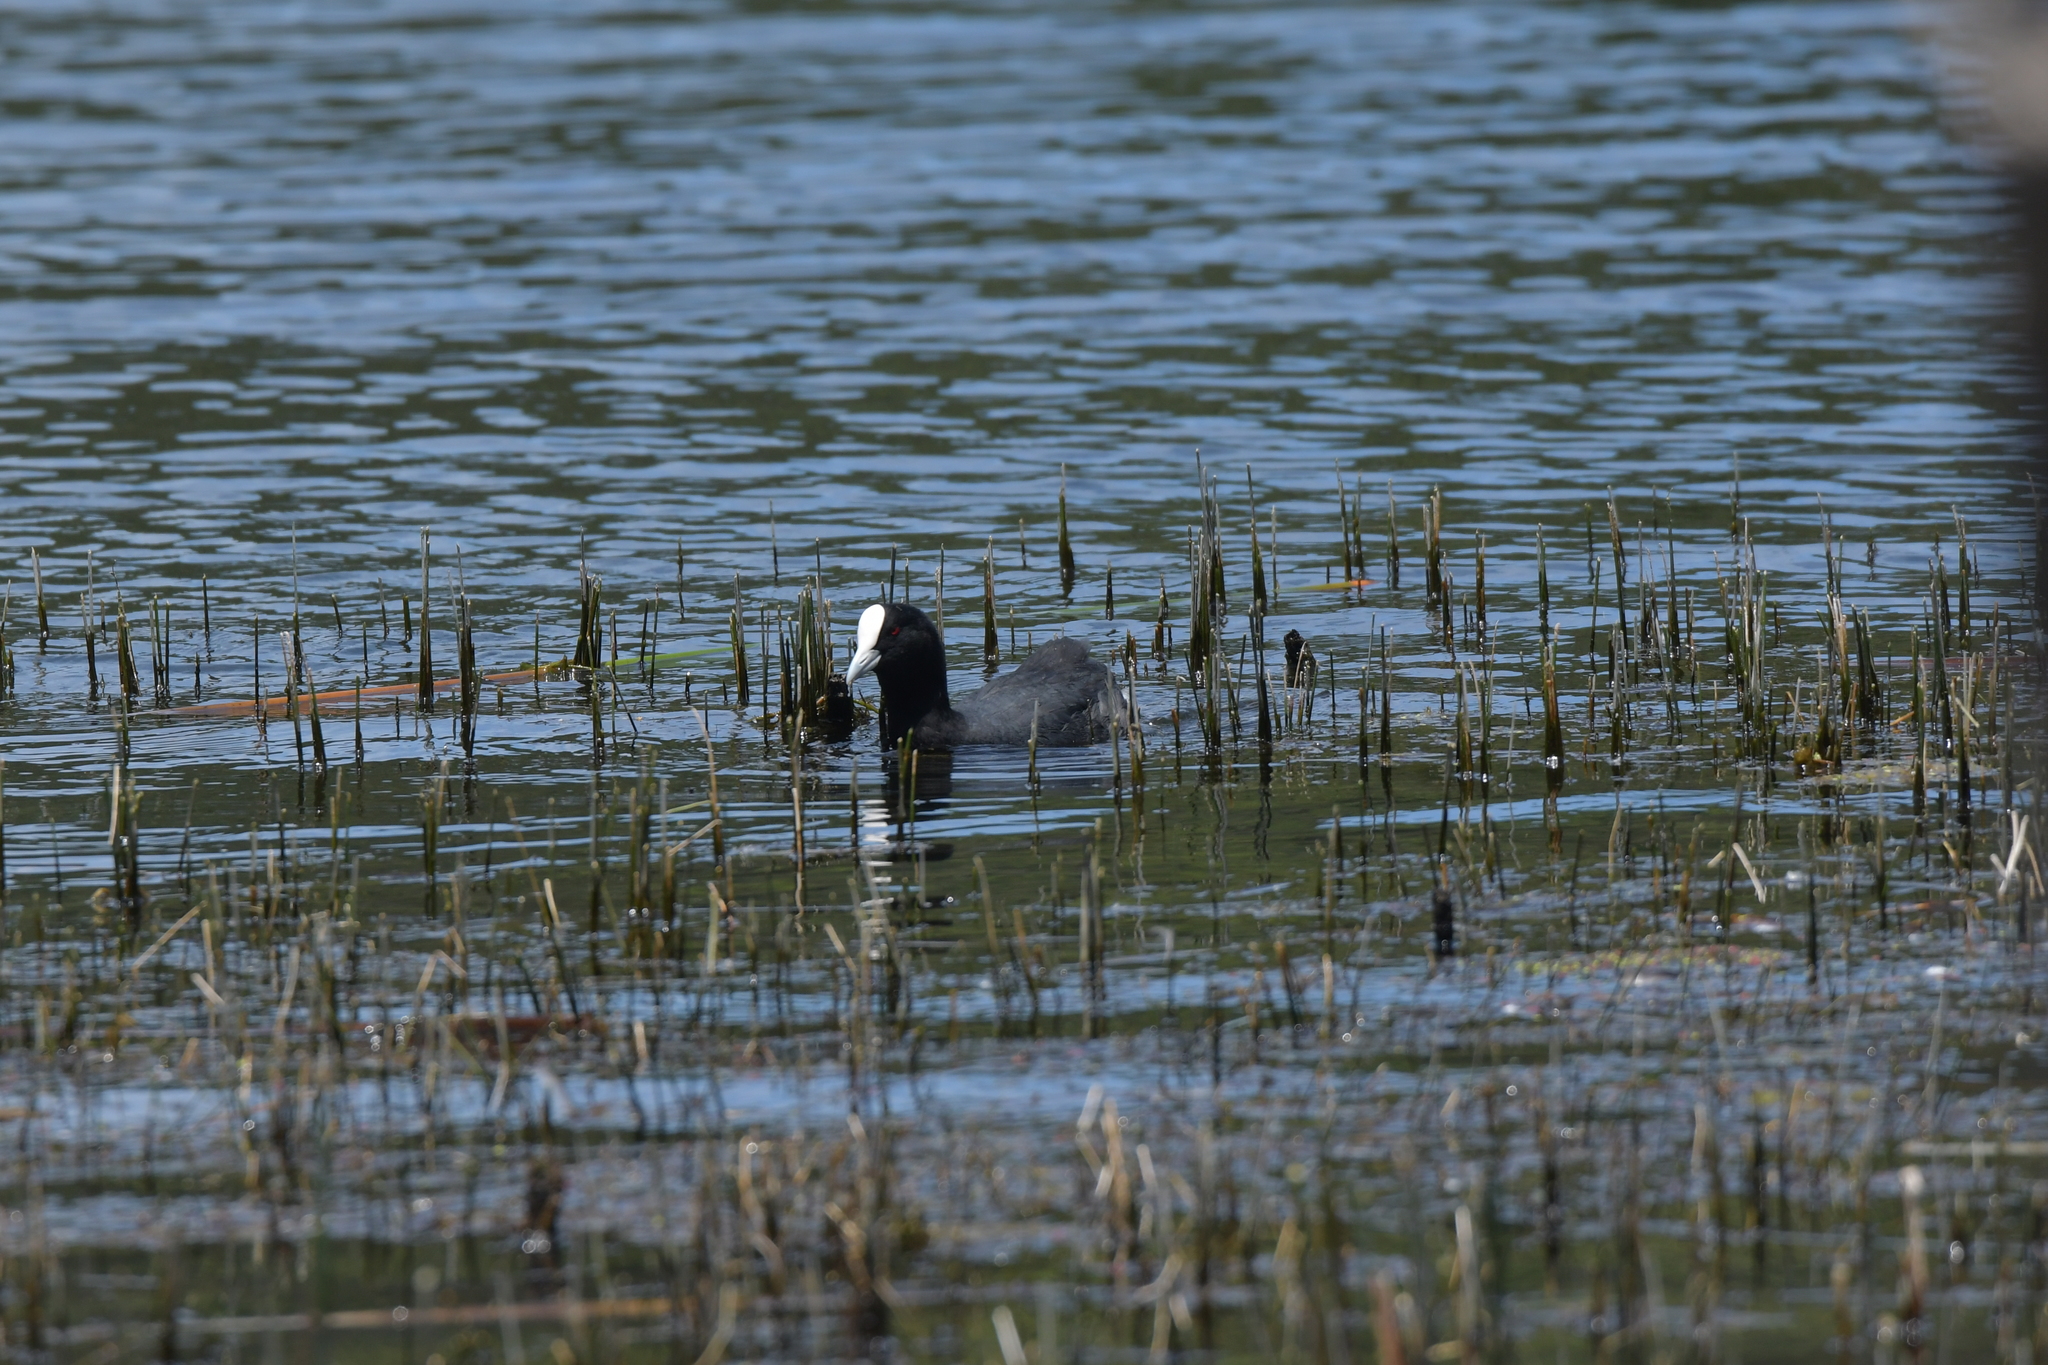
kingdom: Animalia
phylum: Chordata
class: Aves
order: Gruiformes
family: Rallidae
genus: Fulica
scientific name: Fulica atra
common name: Eurasian coot
